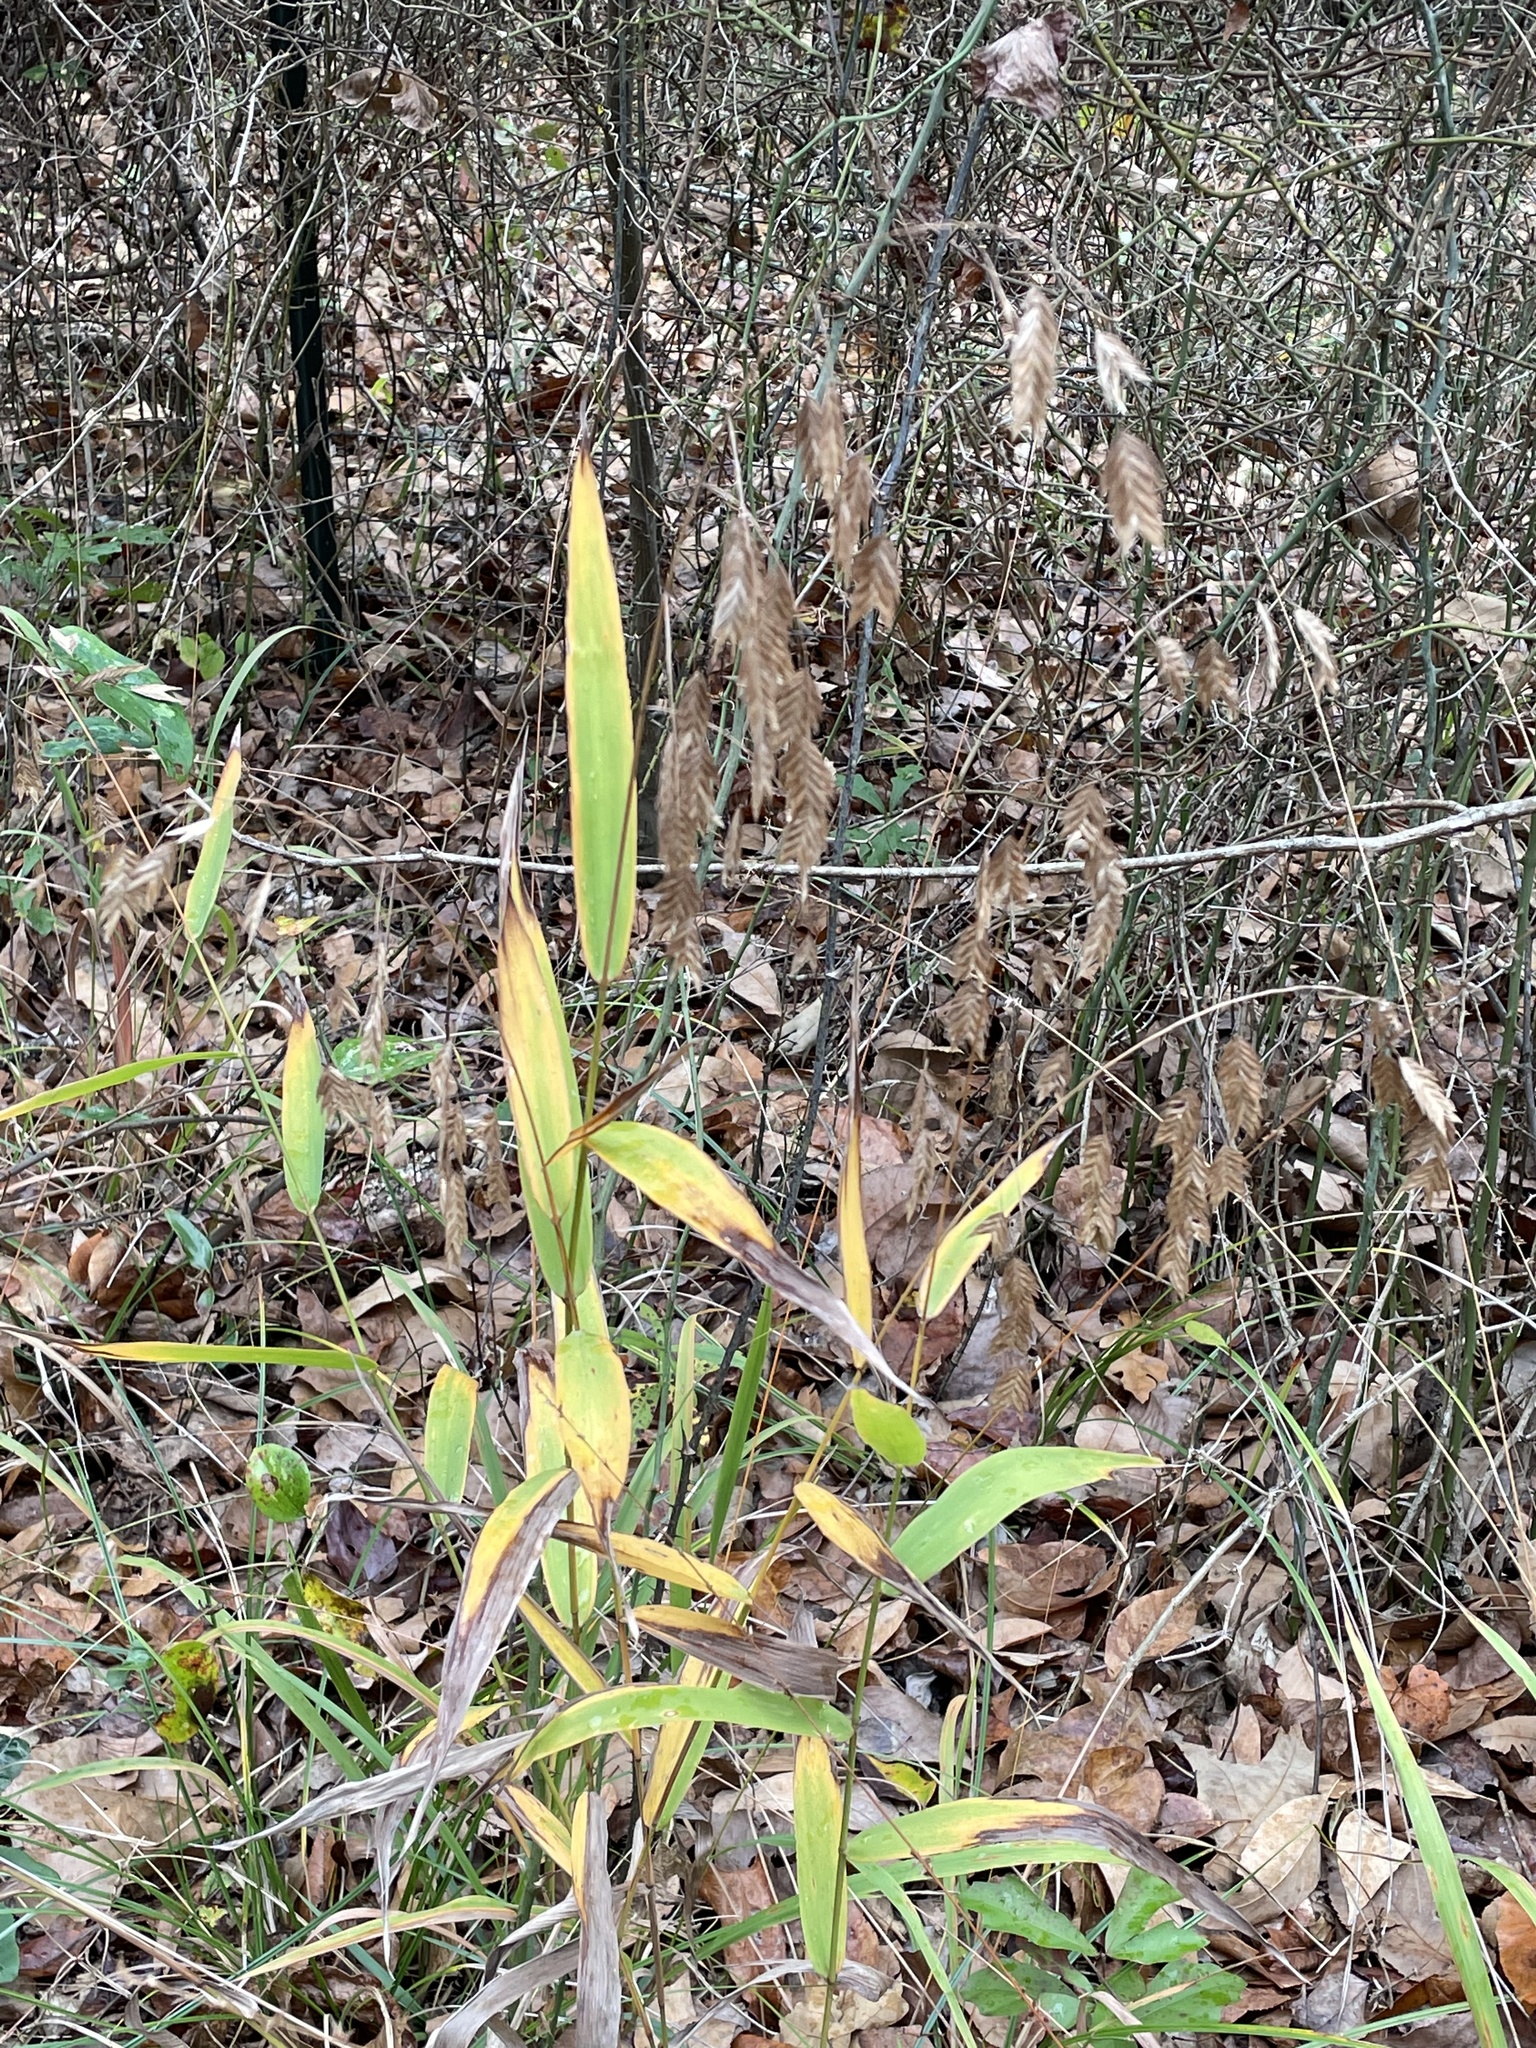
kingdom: Plantae
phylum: Tracheophyta
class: Liliopsida
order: Poales
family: Poaceae
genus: Chasmanthium
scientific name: Chasmanthium latifolium
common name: Broad-leaved chasmanthium
